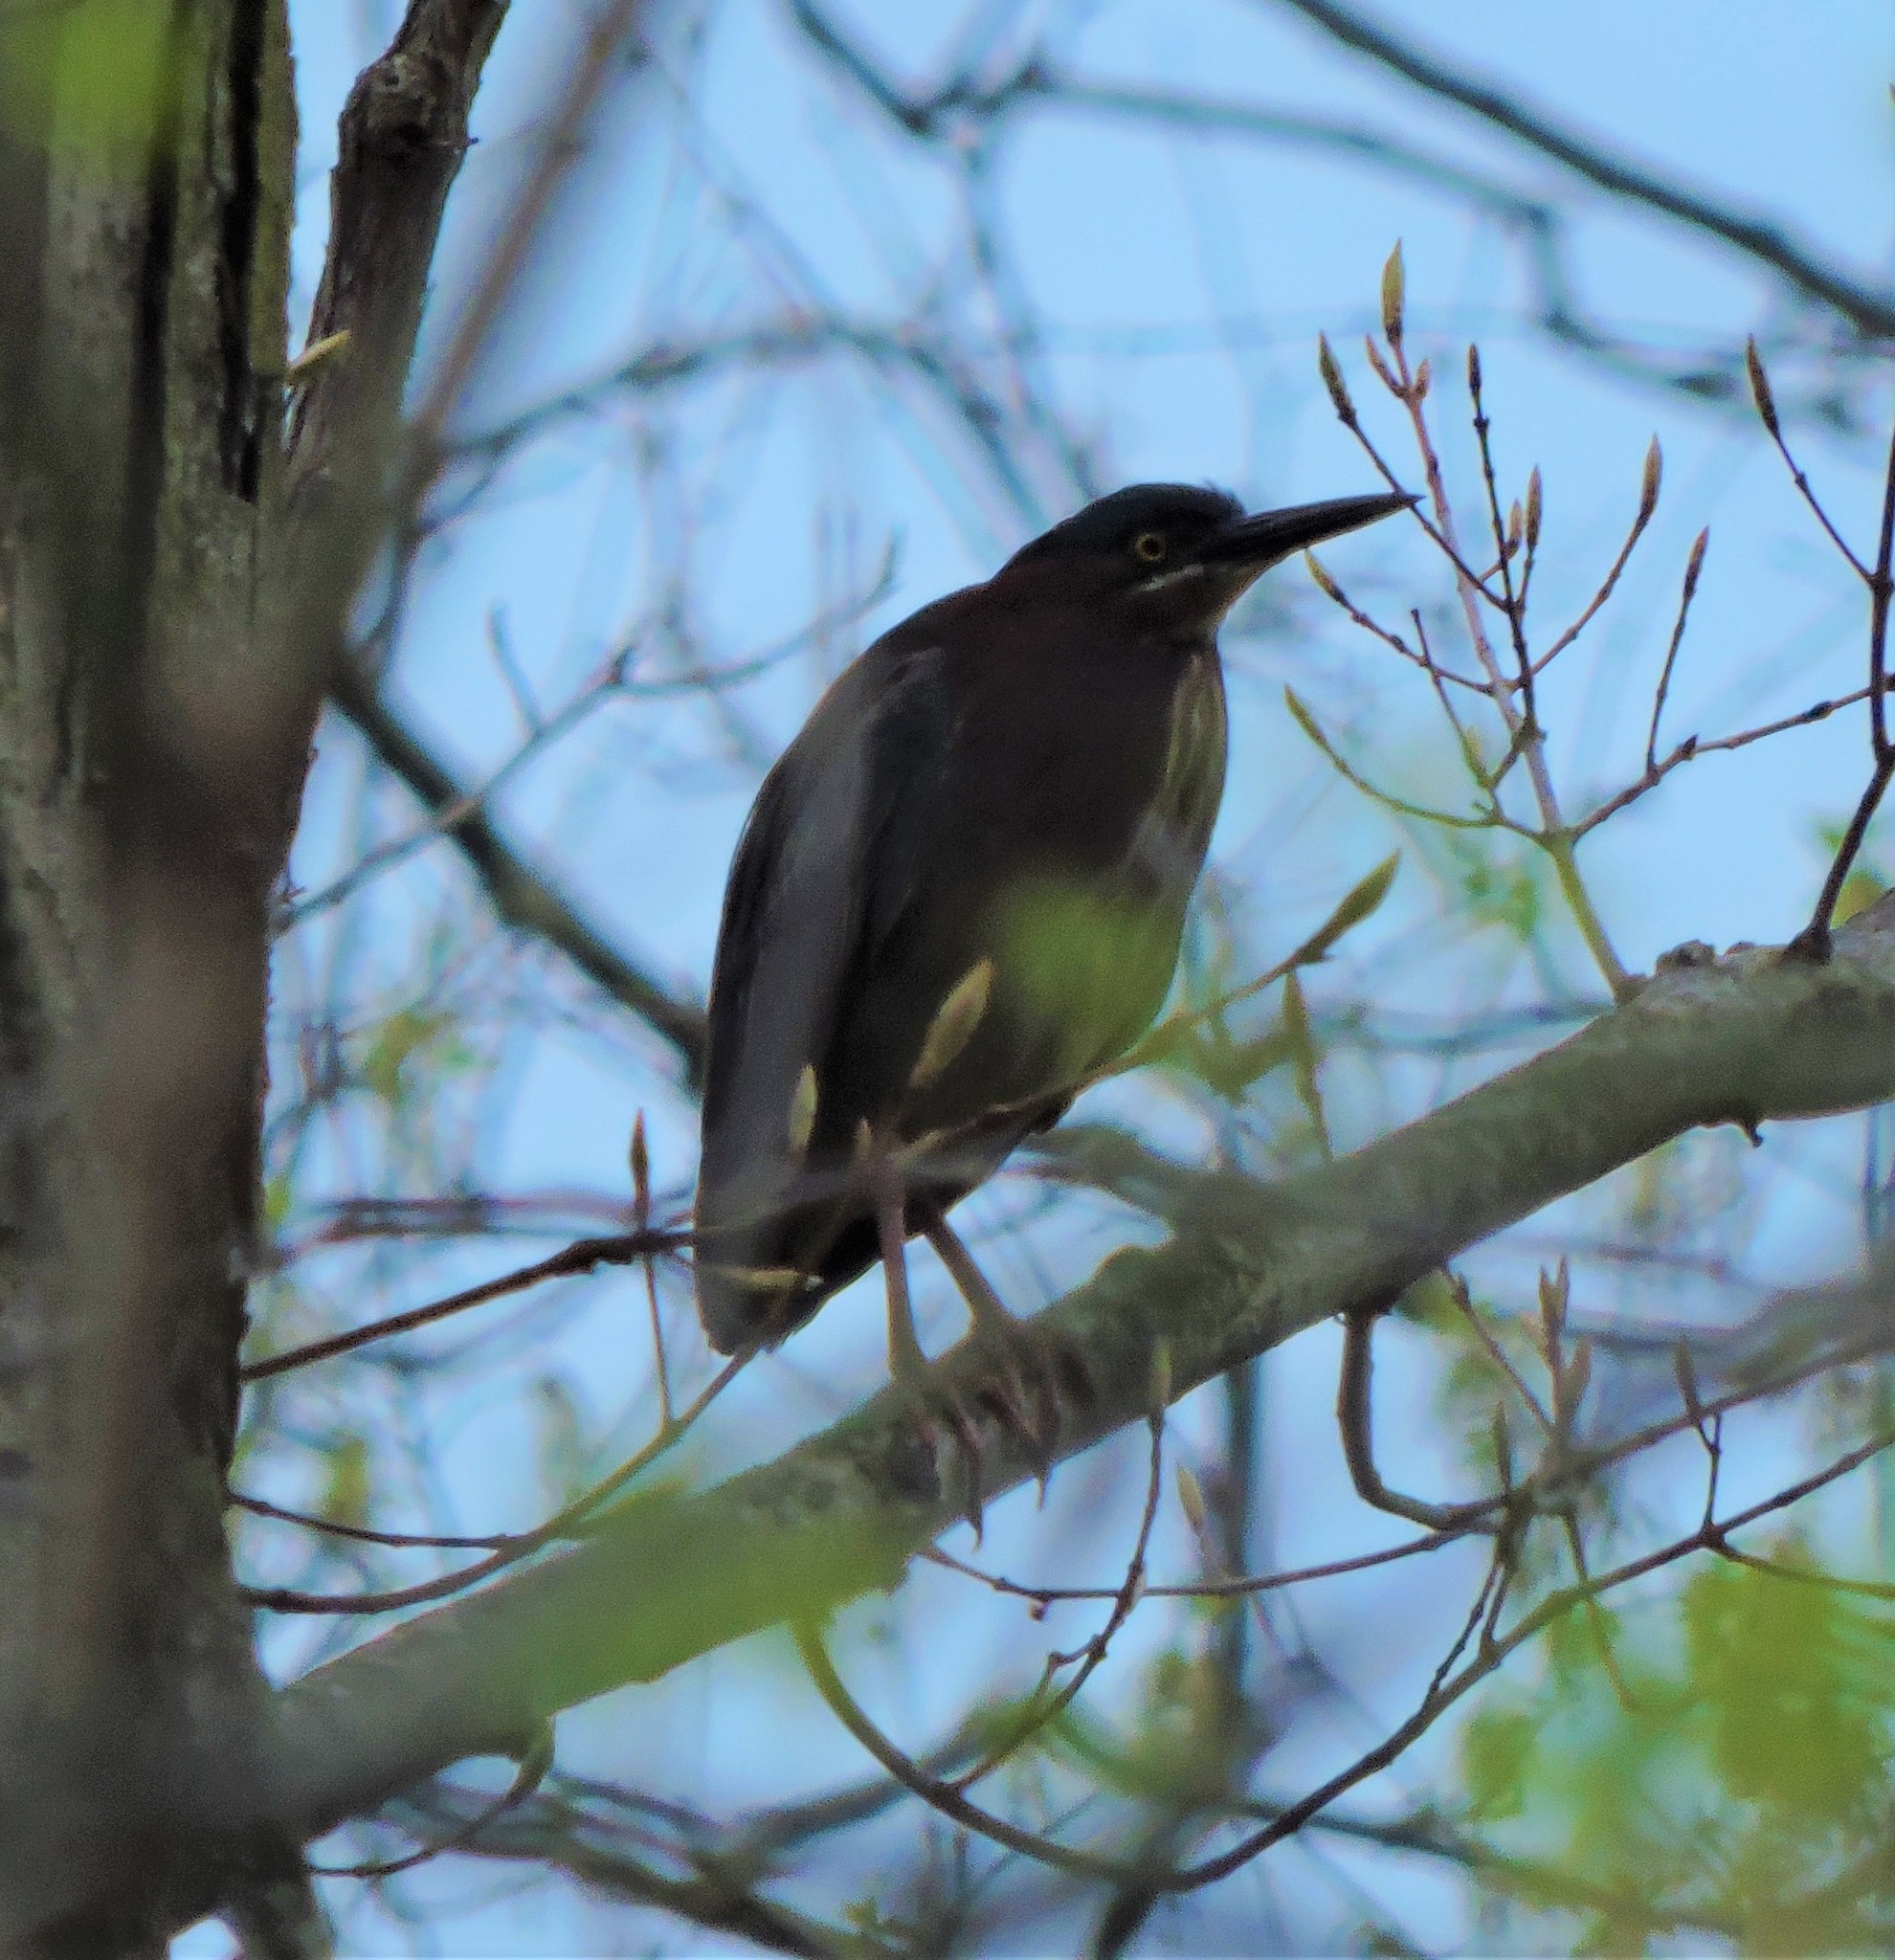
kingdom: Animalia
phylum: Chordata
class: Aves
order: Pelecaniformes
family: Ardeidae
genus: Butorides
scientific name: Butorides virescens
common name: Green heron
